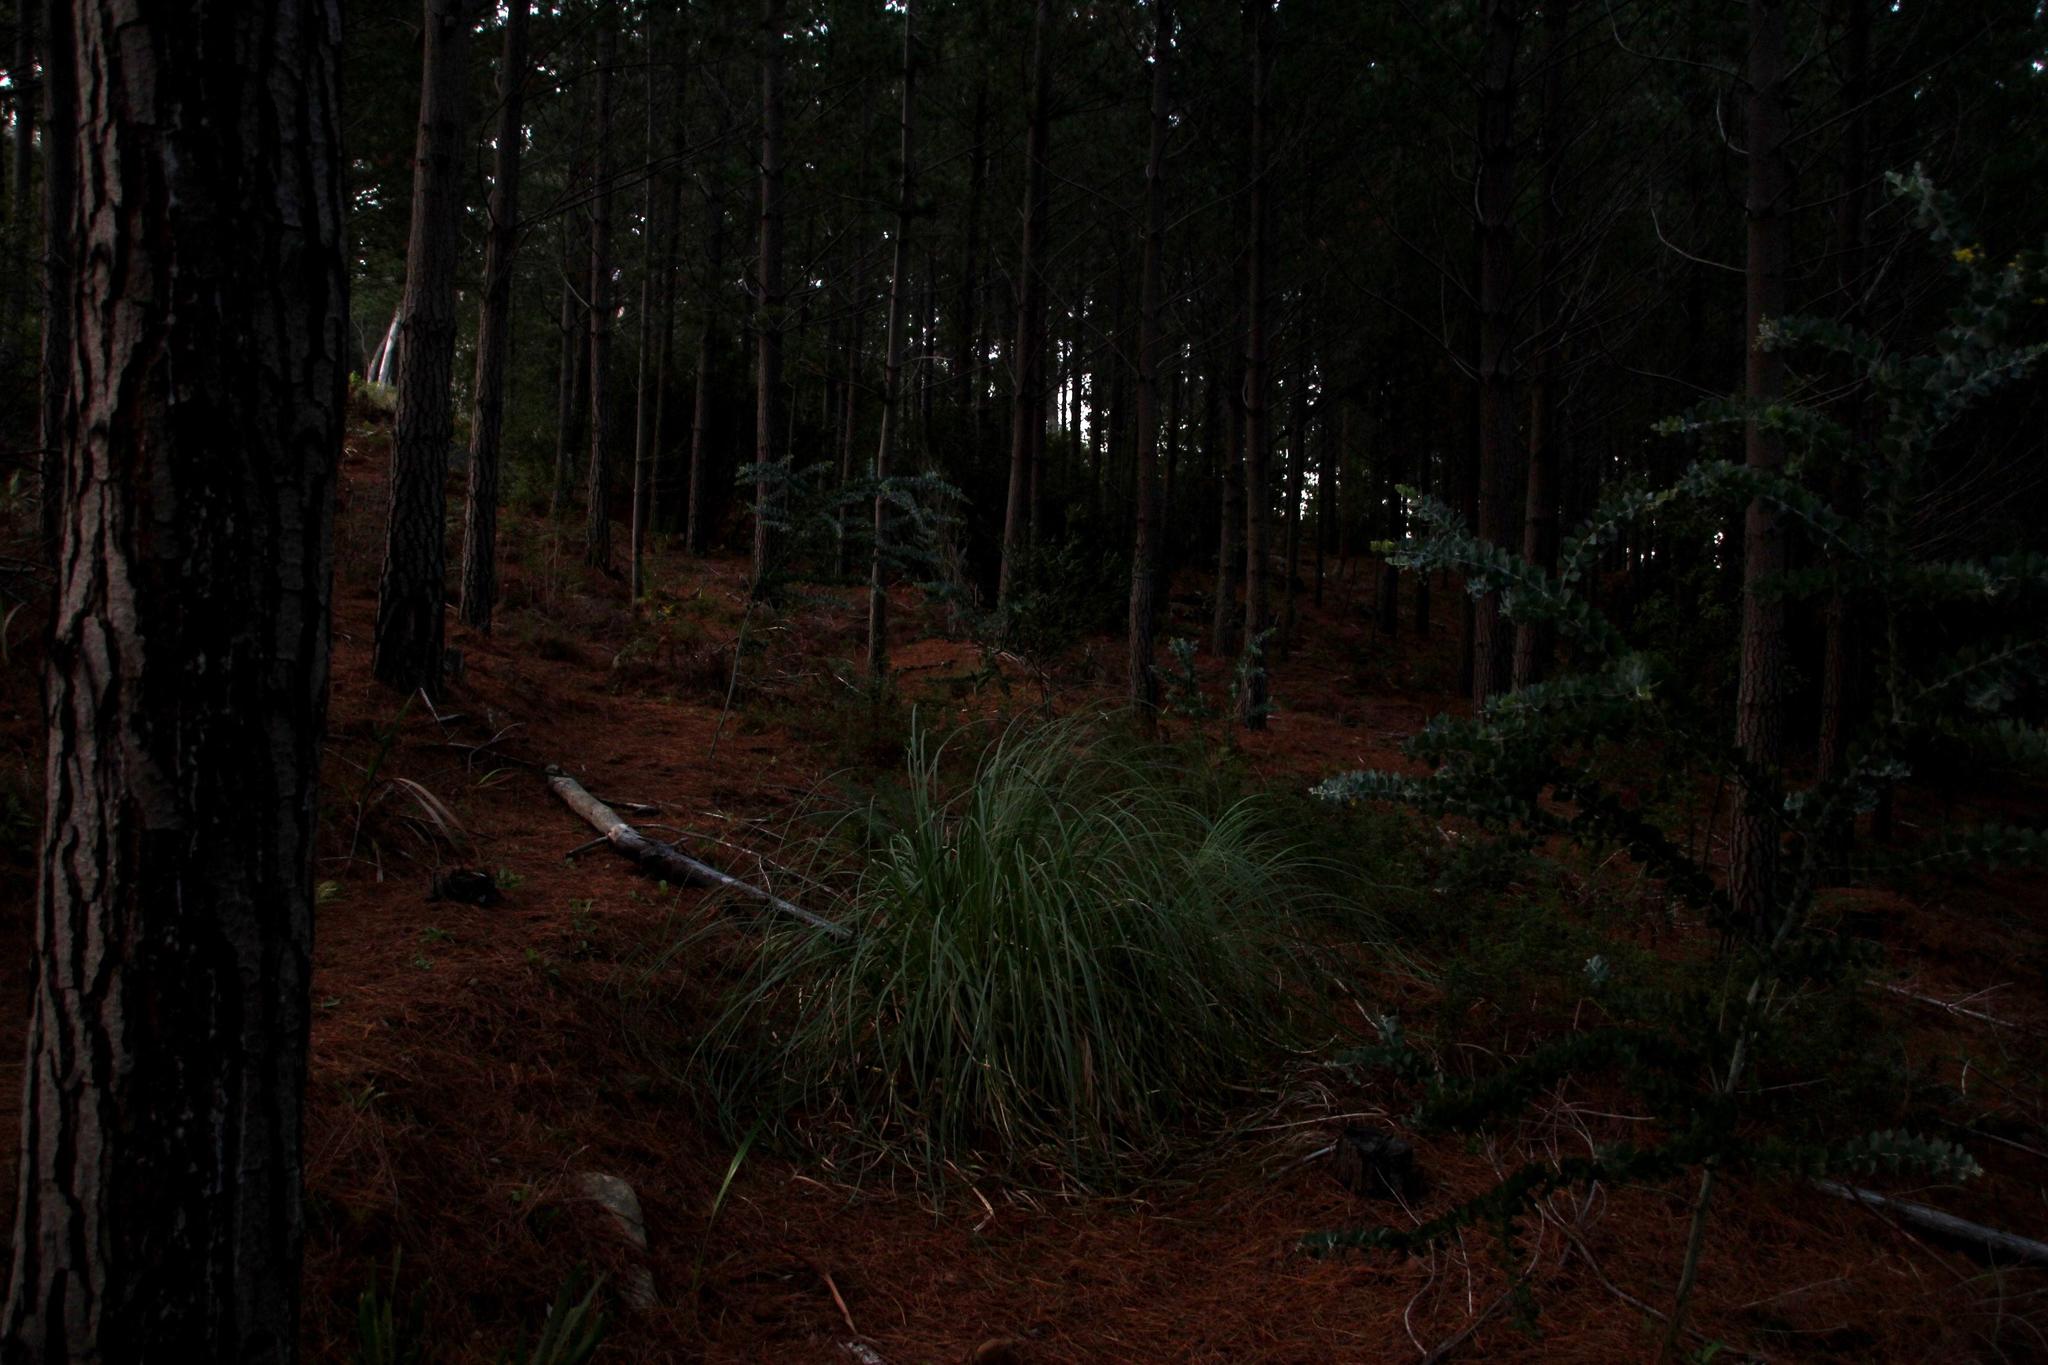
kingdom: Plantae
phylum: Tracheophyta
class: Liliopsida
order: Poales
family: Poaceae
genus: Cortaderia
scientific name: Cortaderia selloana
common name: Uruguayan pampas grass
